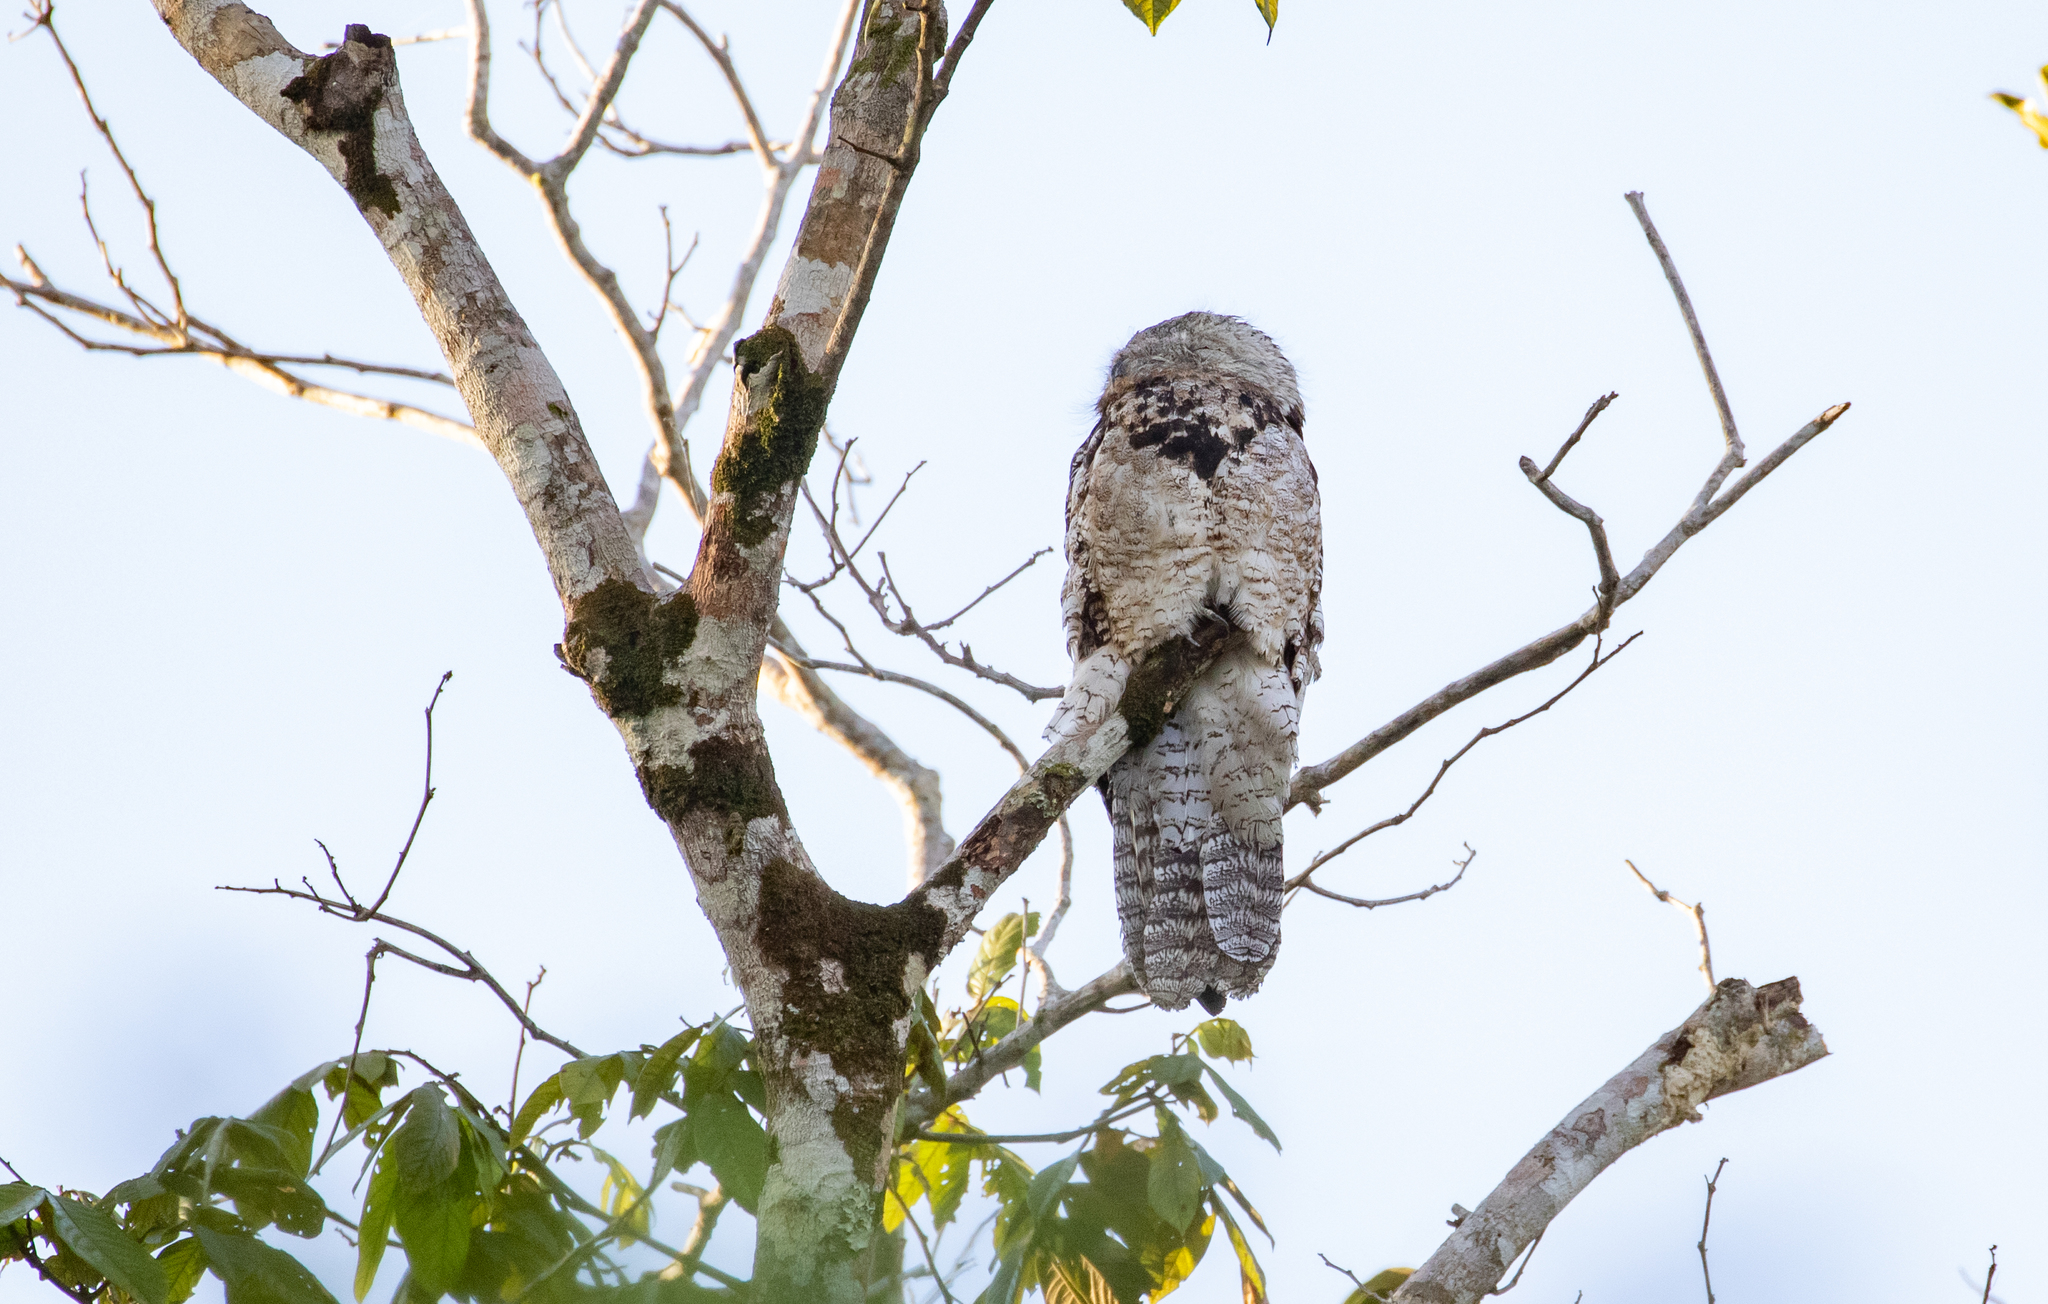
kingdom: Animalia
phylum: Chordata
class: Aves
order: Nyctibiiformes
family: Nyctibiidae
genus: Nyctibius
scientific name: Nyctibius grandis
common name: Great potoo
